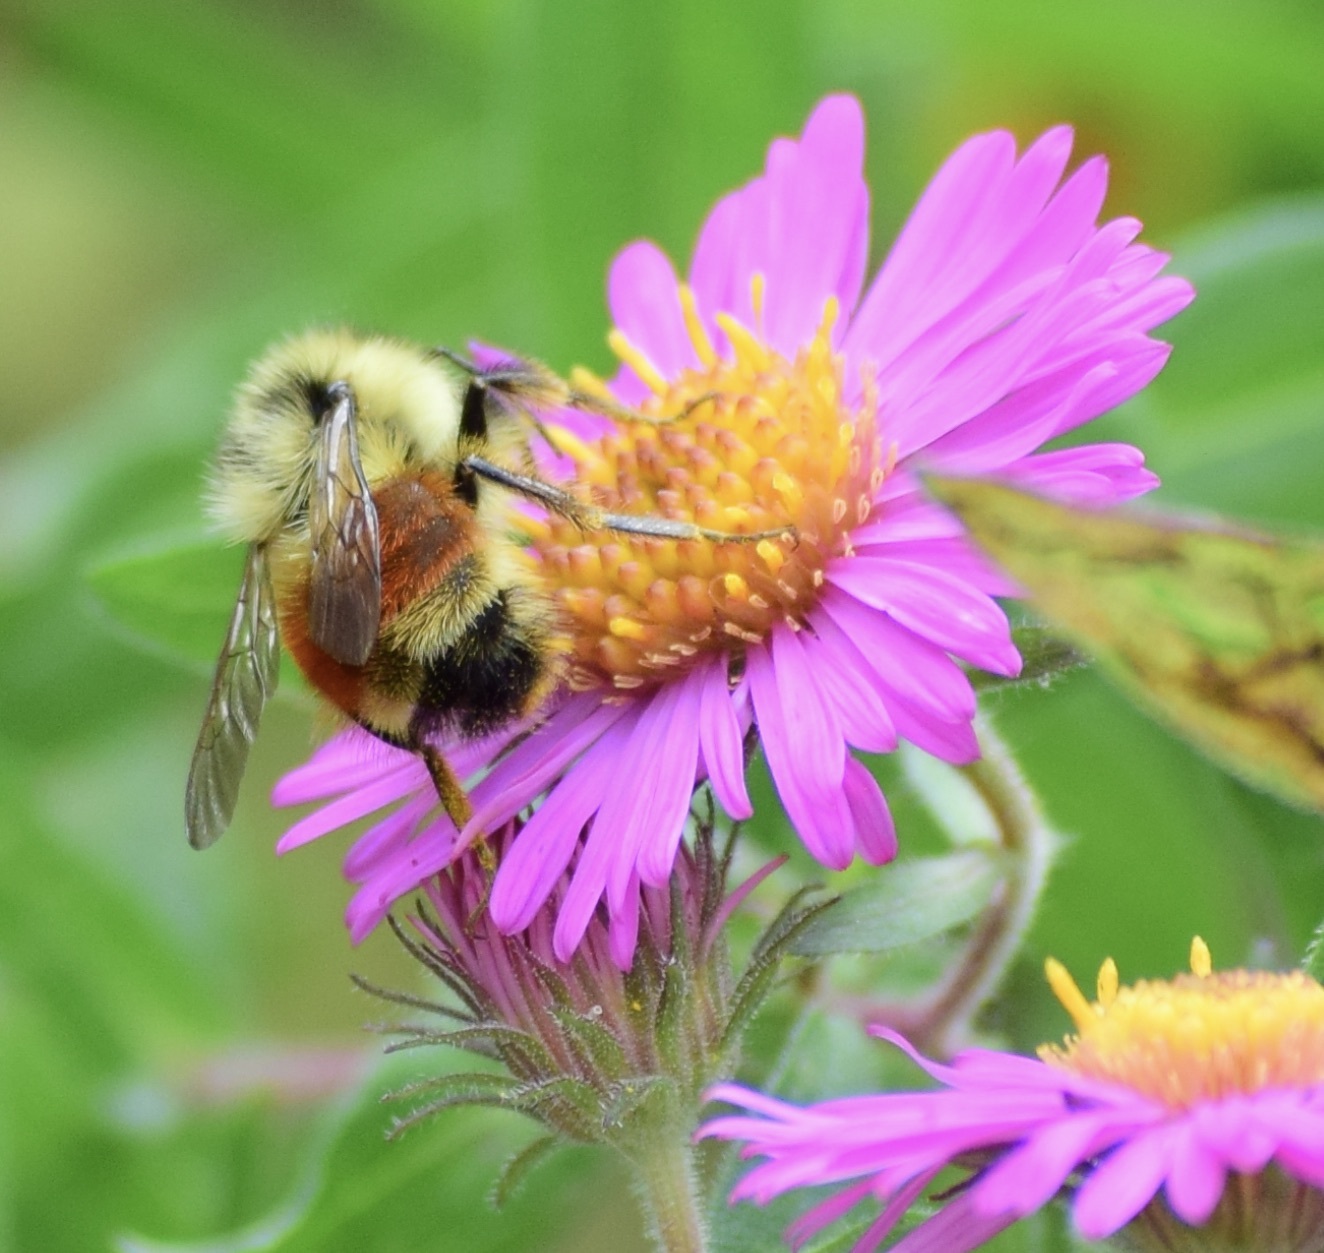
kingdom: Animalia
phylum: Arthropoda
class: Insecta
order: Hymenoptera
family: Apidae
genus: Bombus
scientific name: Bombus ternarius
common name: Tri-colored bumble bee
